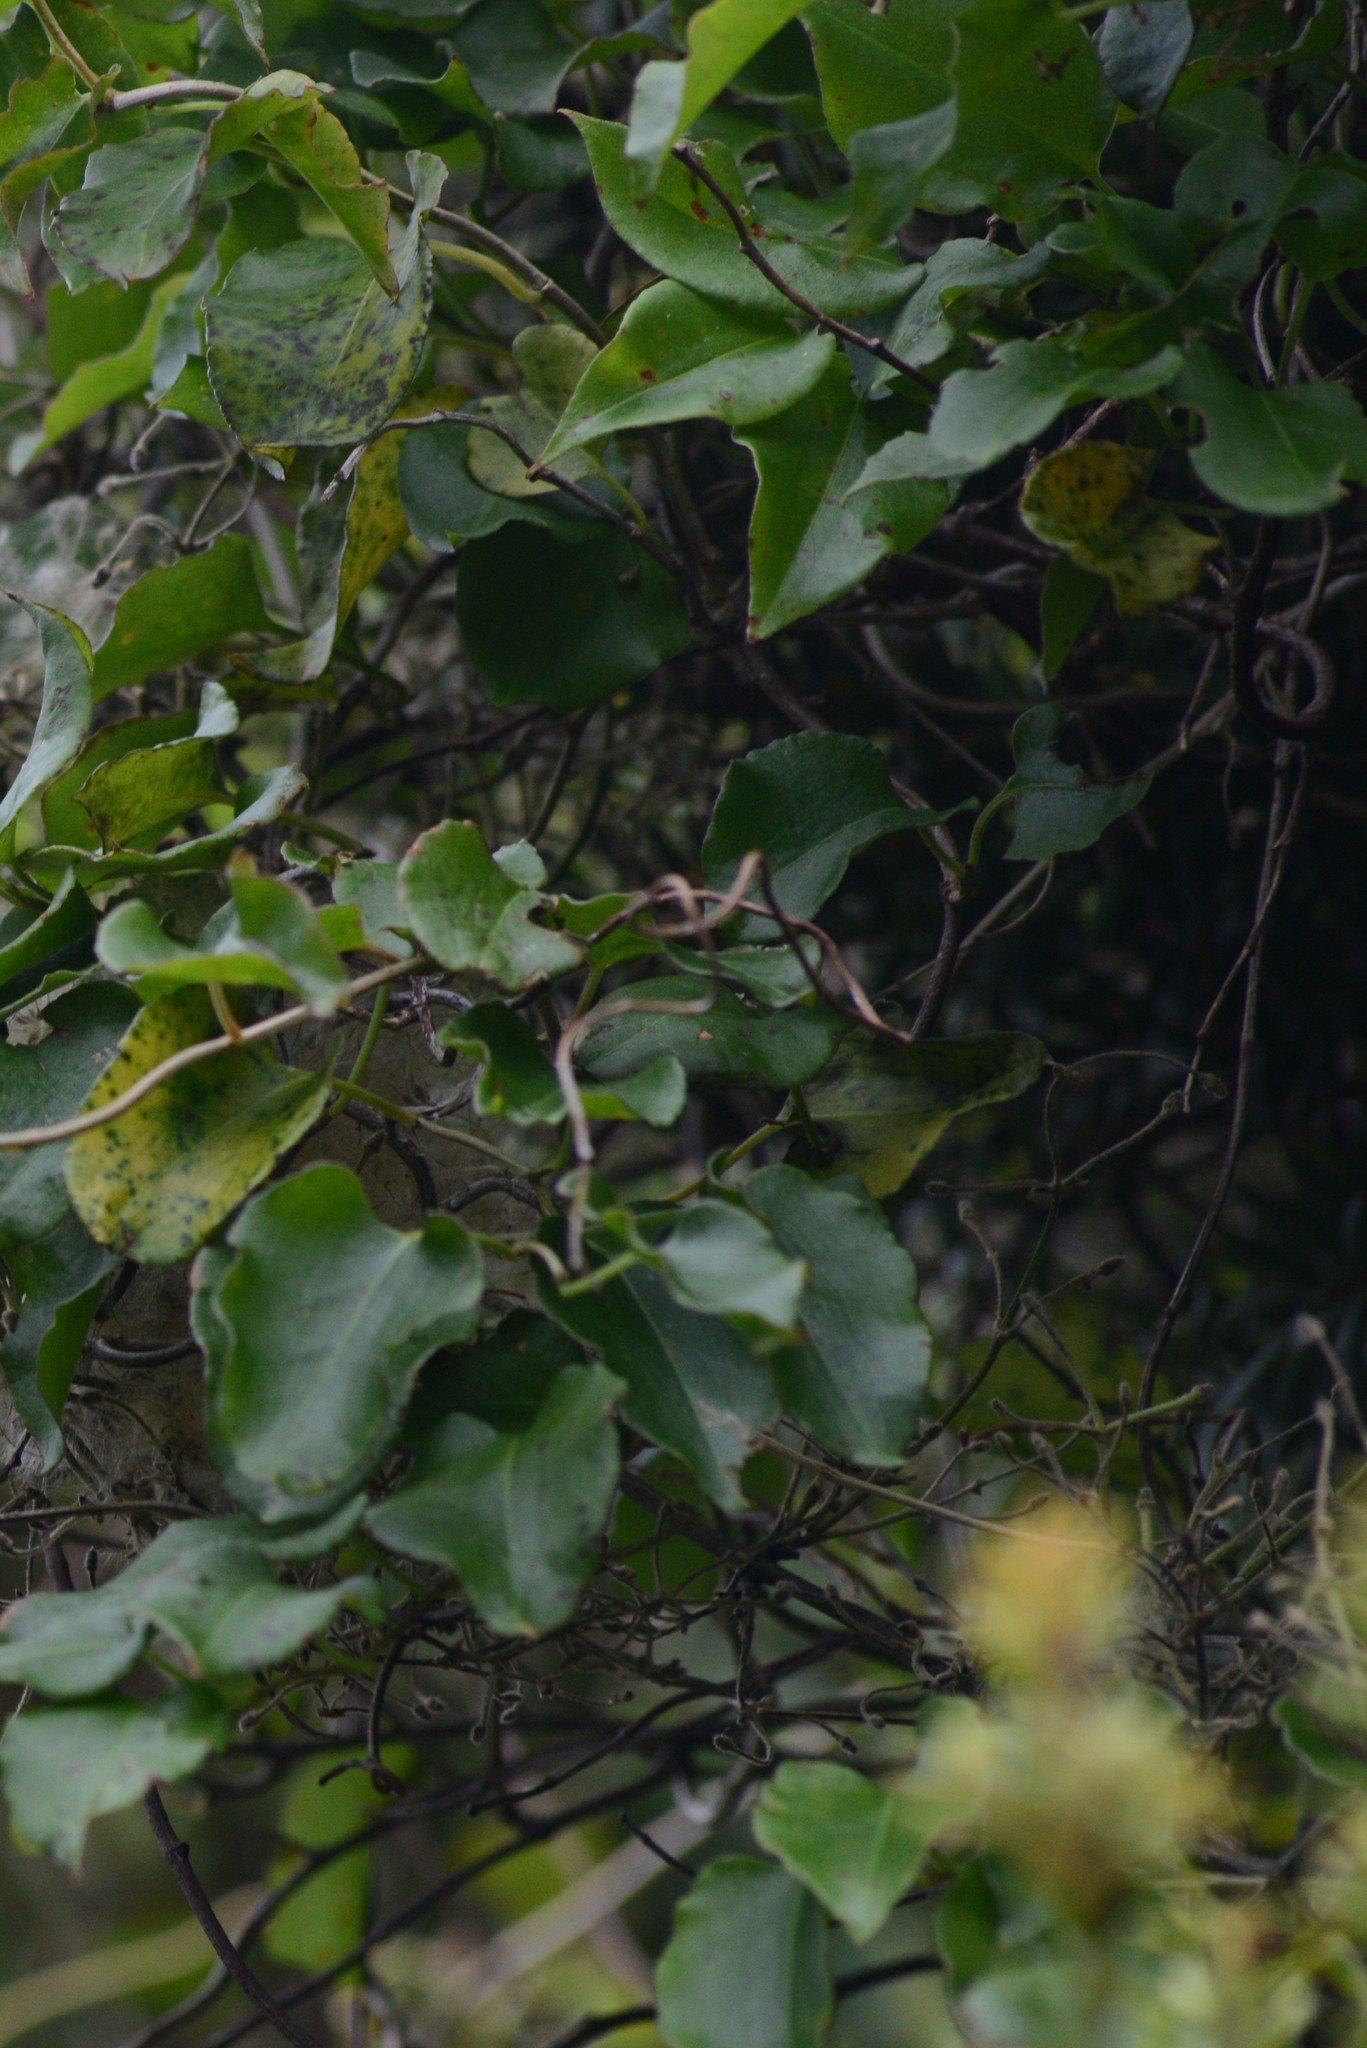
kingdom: Plantae
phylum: Tracheophyta
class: Magnoliopsida
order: Caryophyllales
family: Polygonaceae
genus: Muehlenbeckia
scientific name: Muehlenbeckia australis
